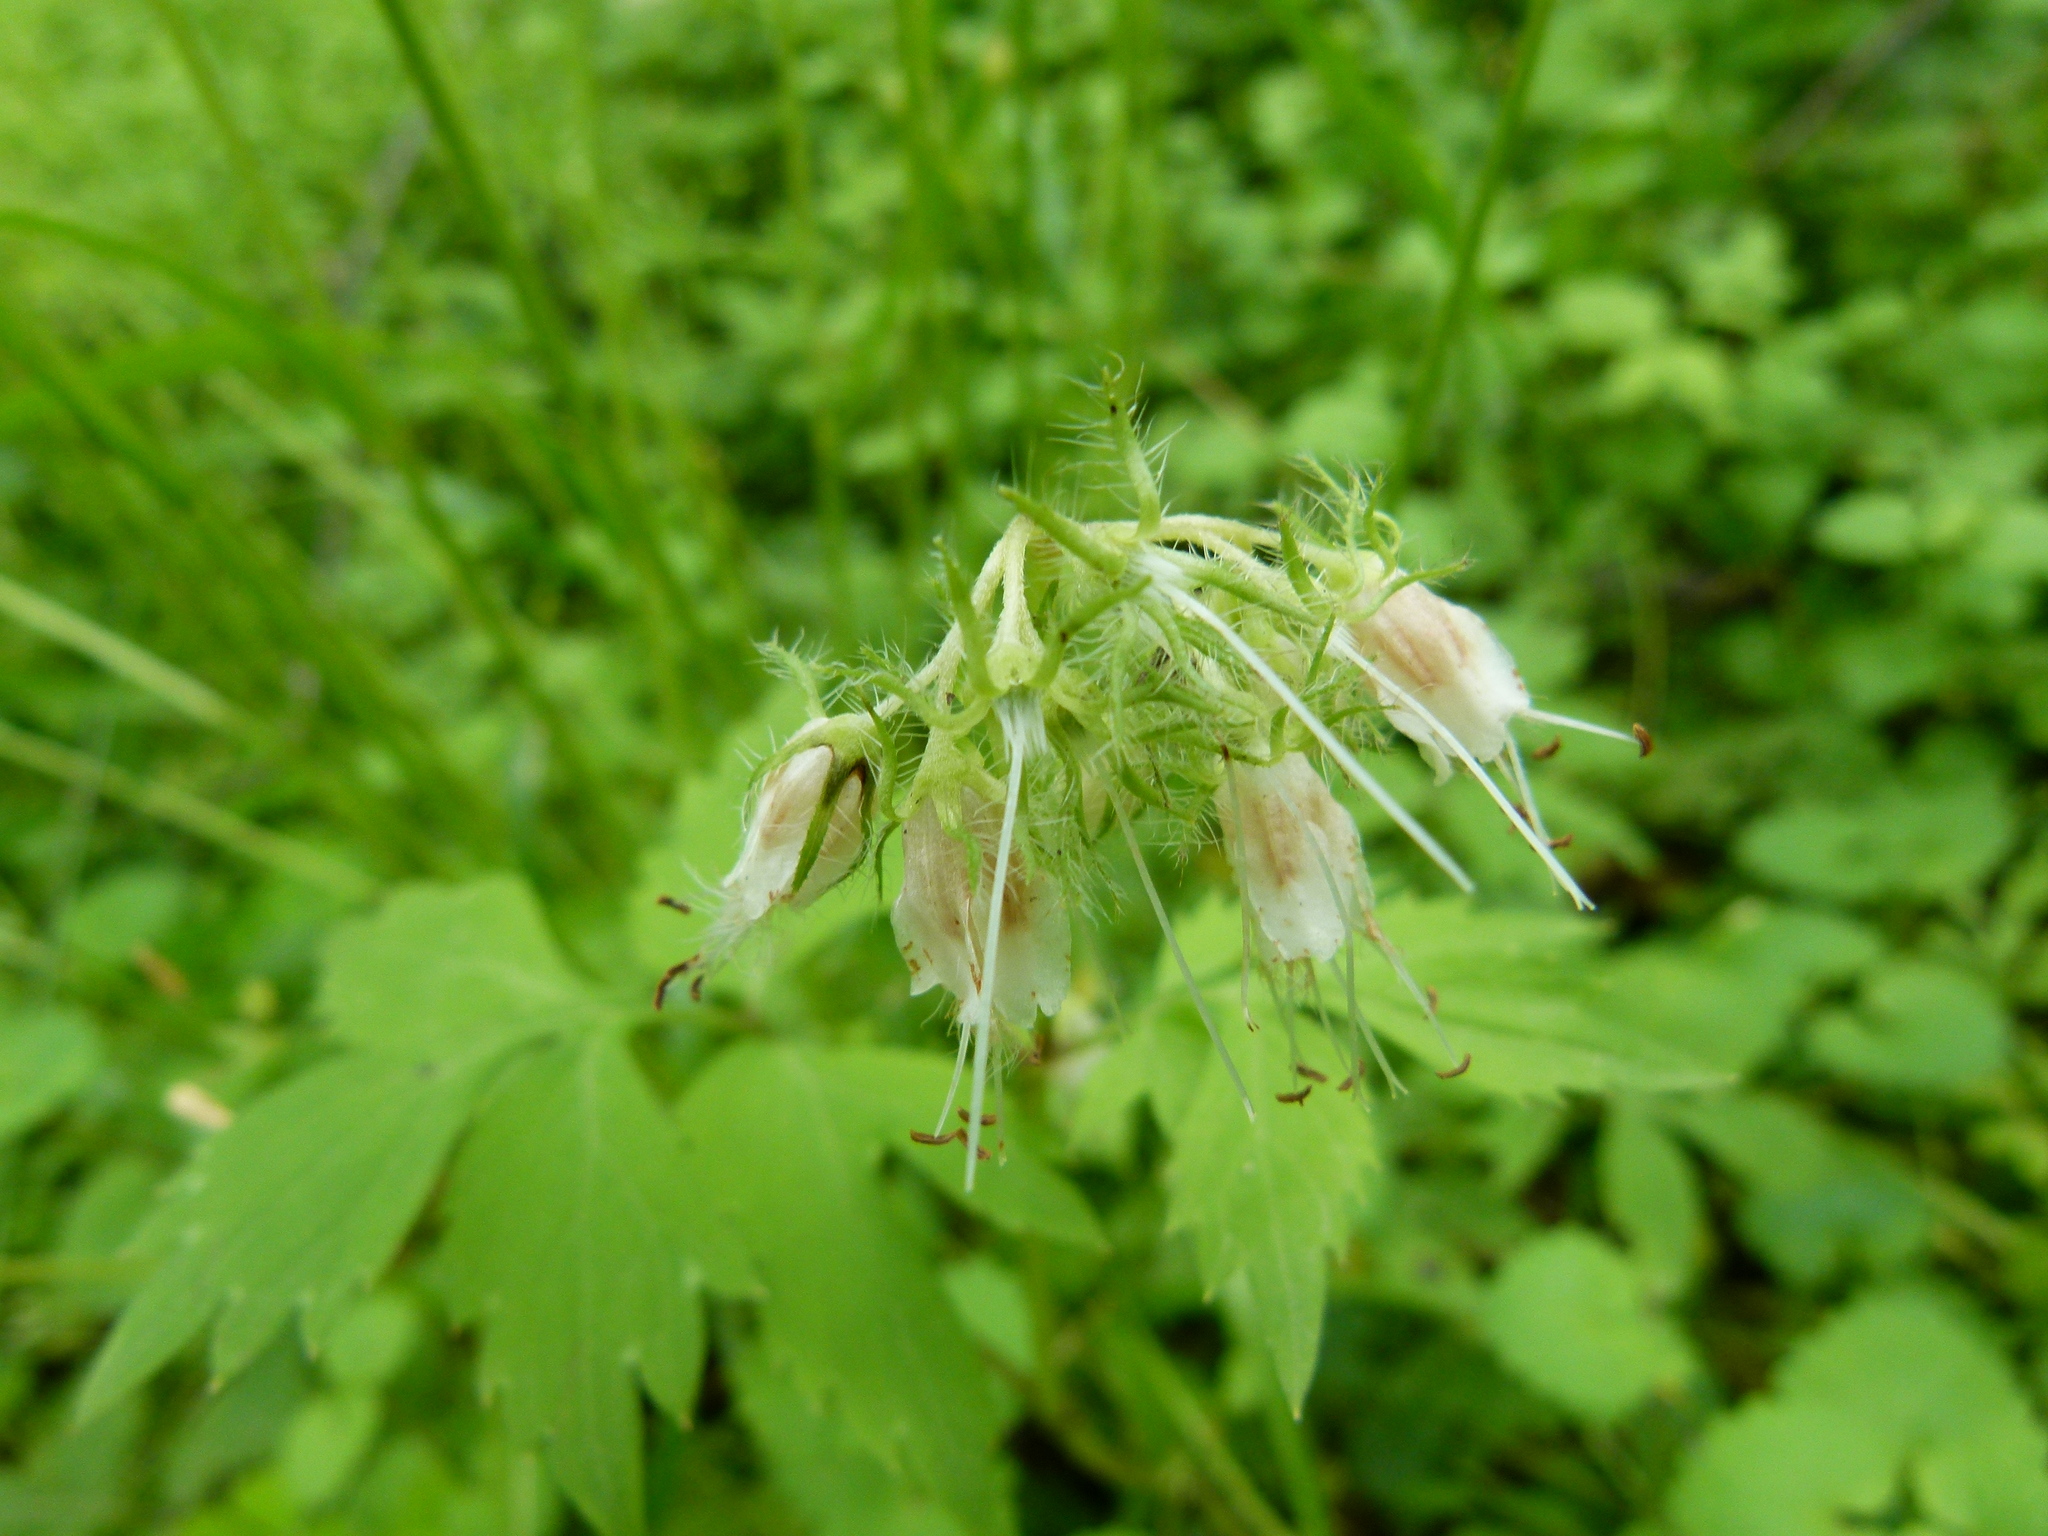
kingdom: Plantae
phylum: Tracheophyta
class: Magnoliopsida
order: Boraginales
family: Hydrophyllaceae
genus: Hydrophyllum
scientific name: Hydrophyllum virginianum
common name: Virginia waterleaf
